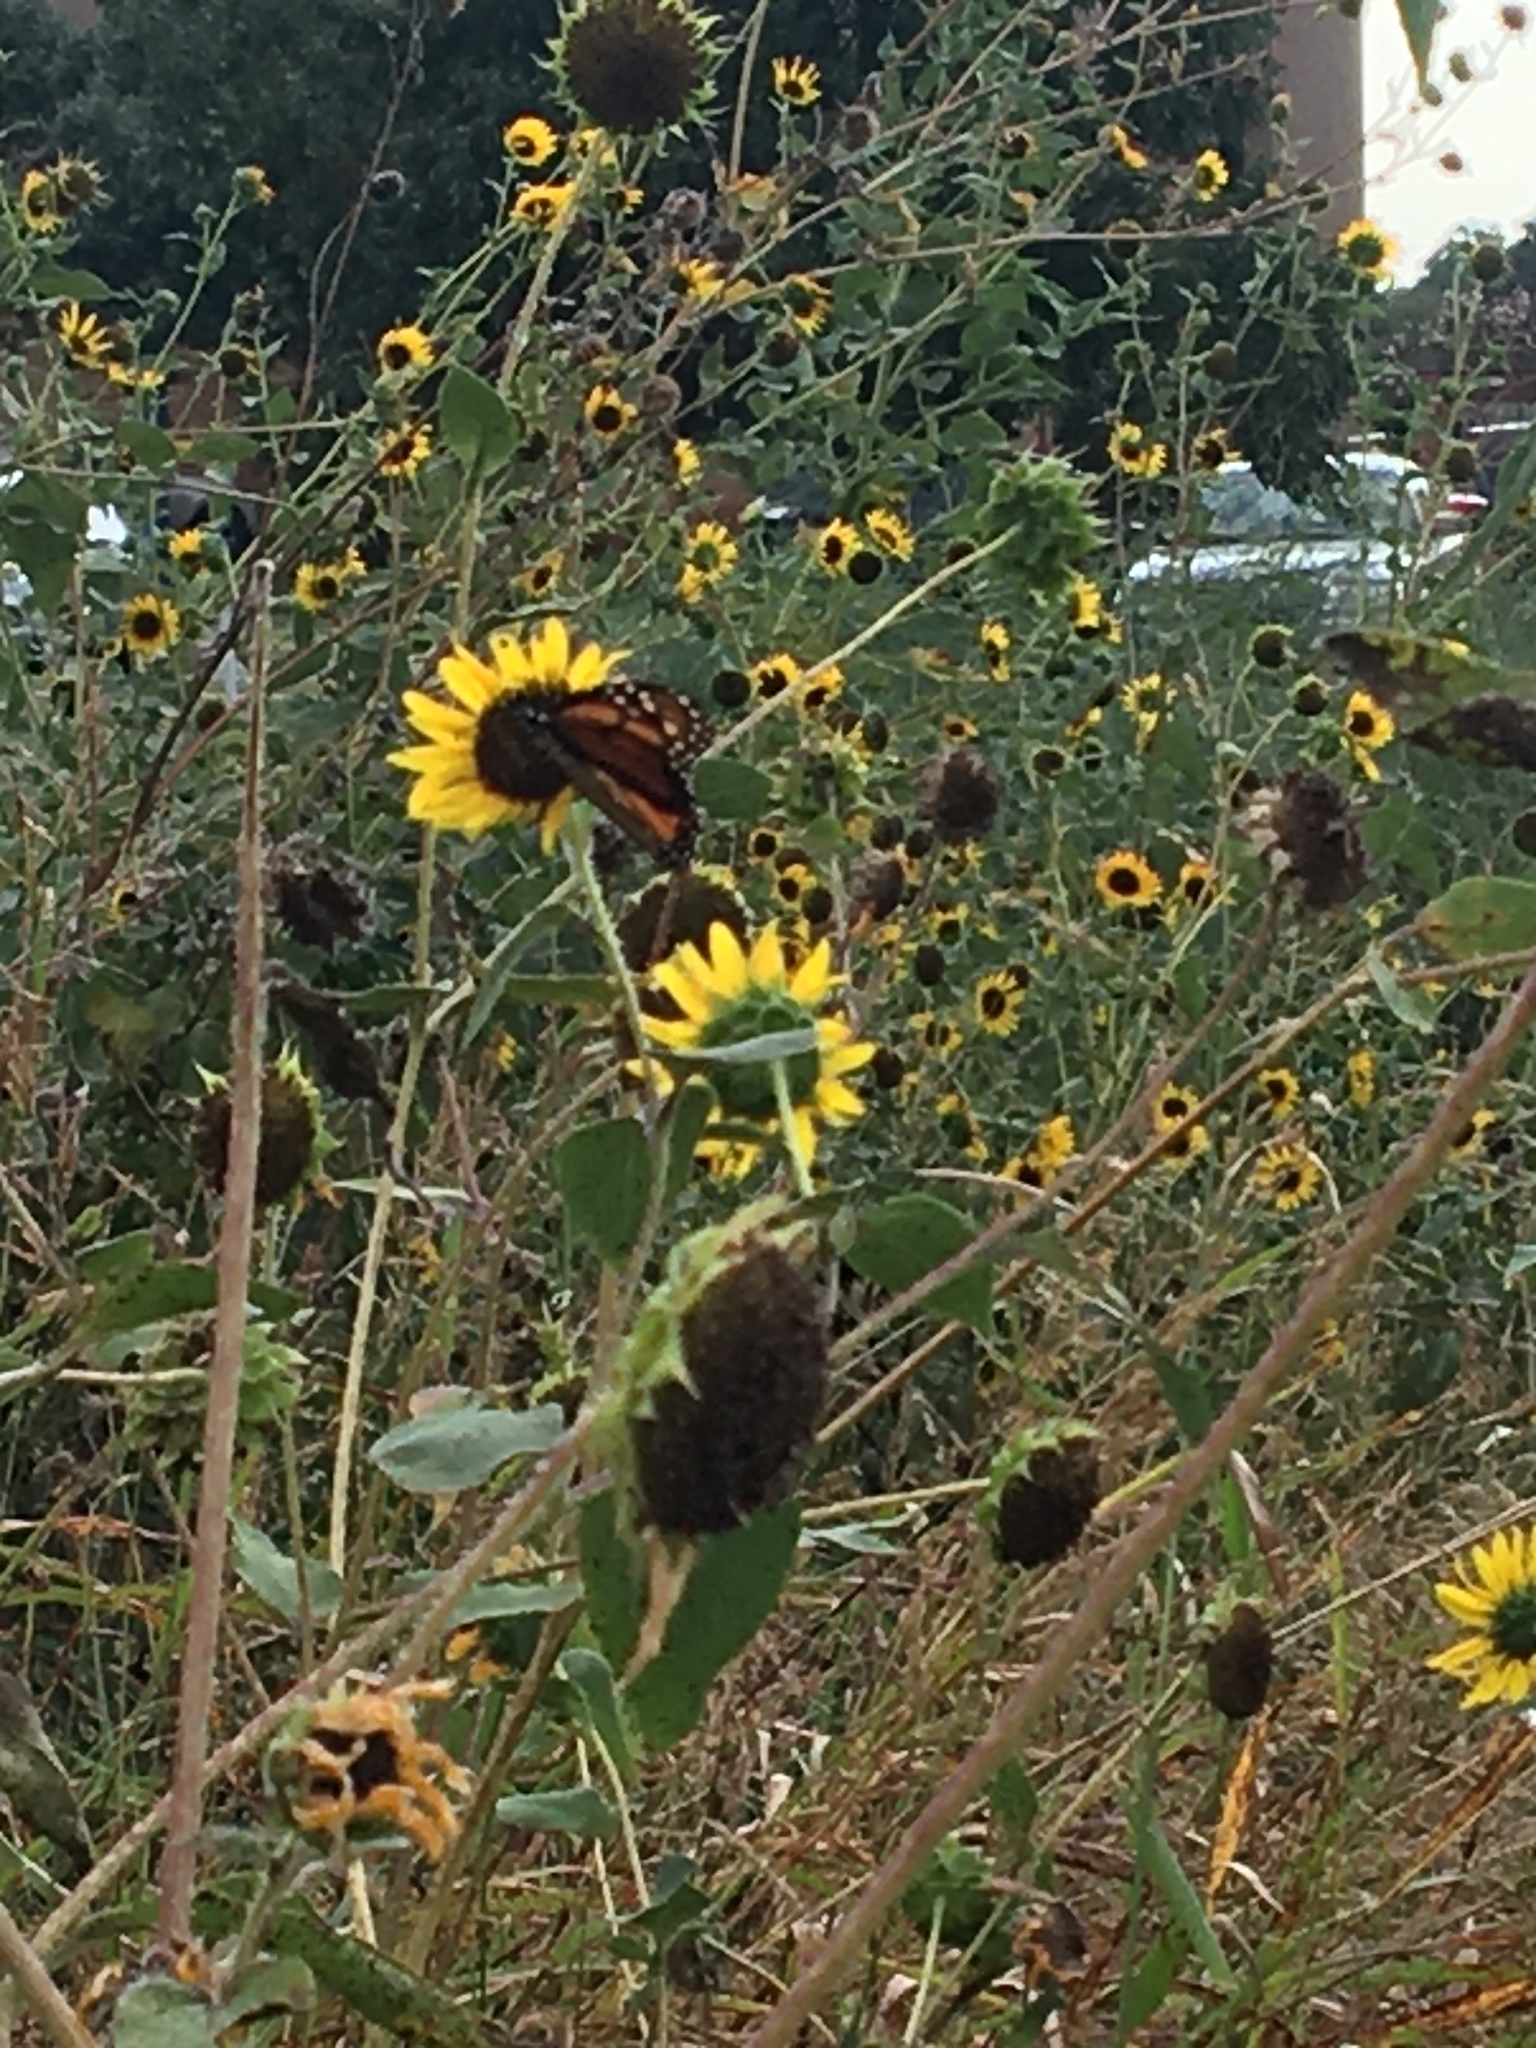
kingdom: Plantae
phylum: Tracheophyta
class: Magnoliopsida
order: Asterales
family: Asteraceae
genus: Helianthus
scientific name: Helianthus annuus
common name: Sunflower
